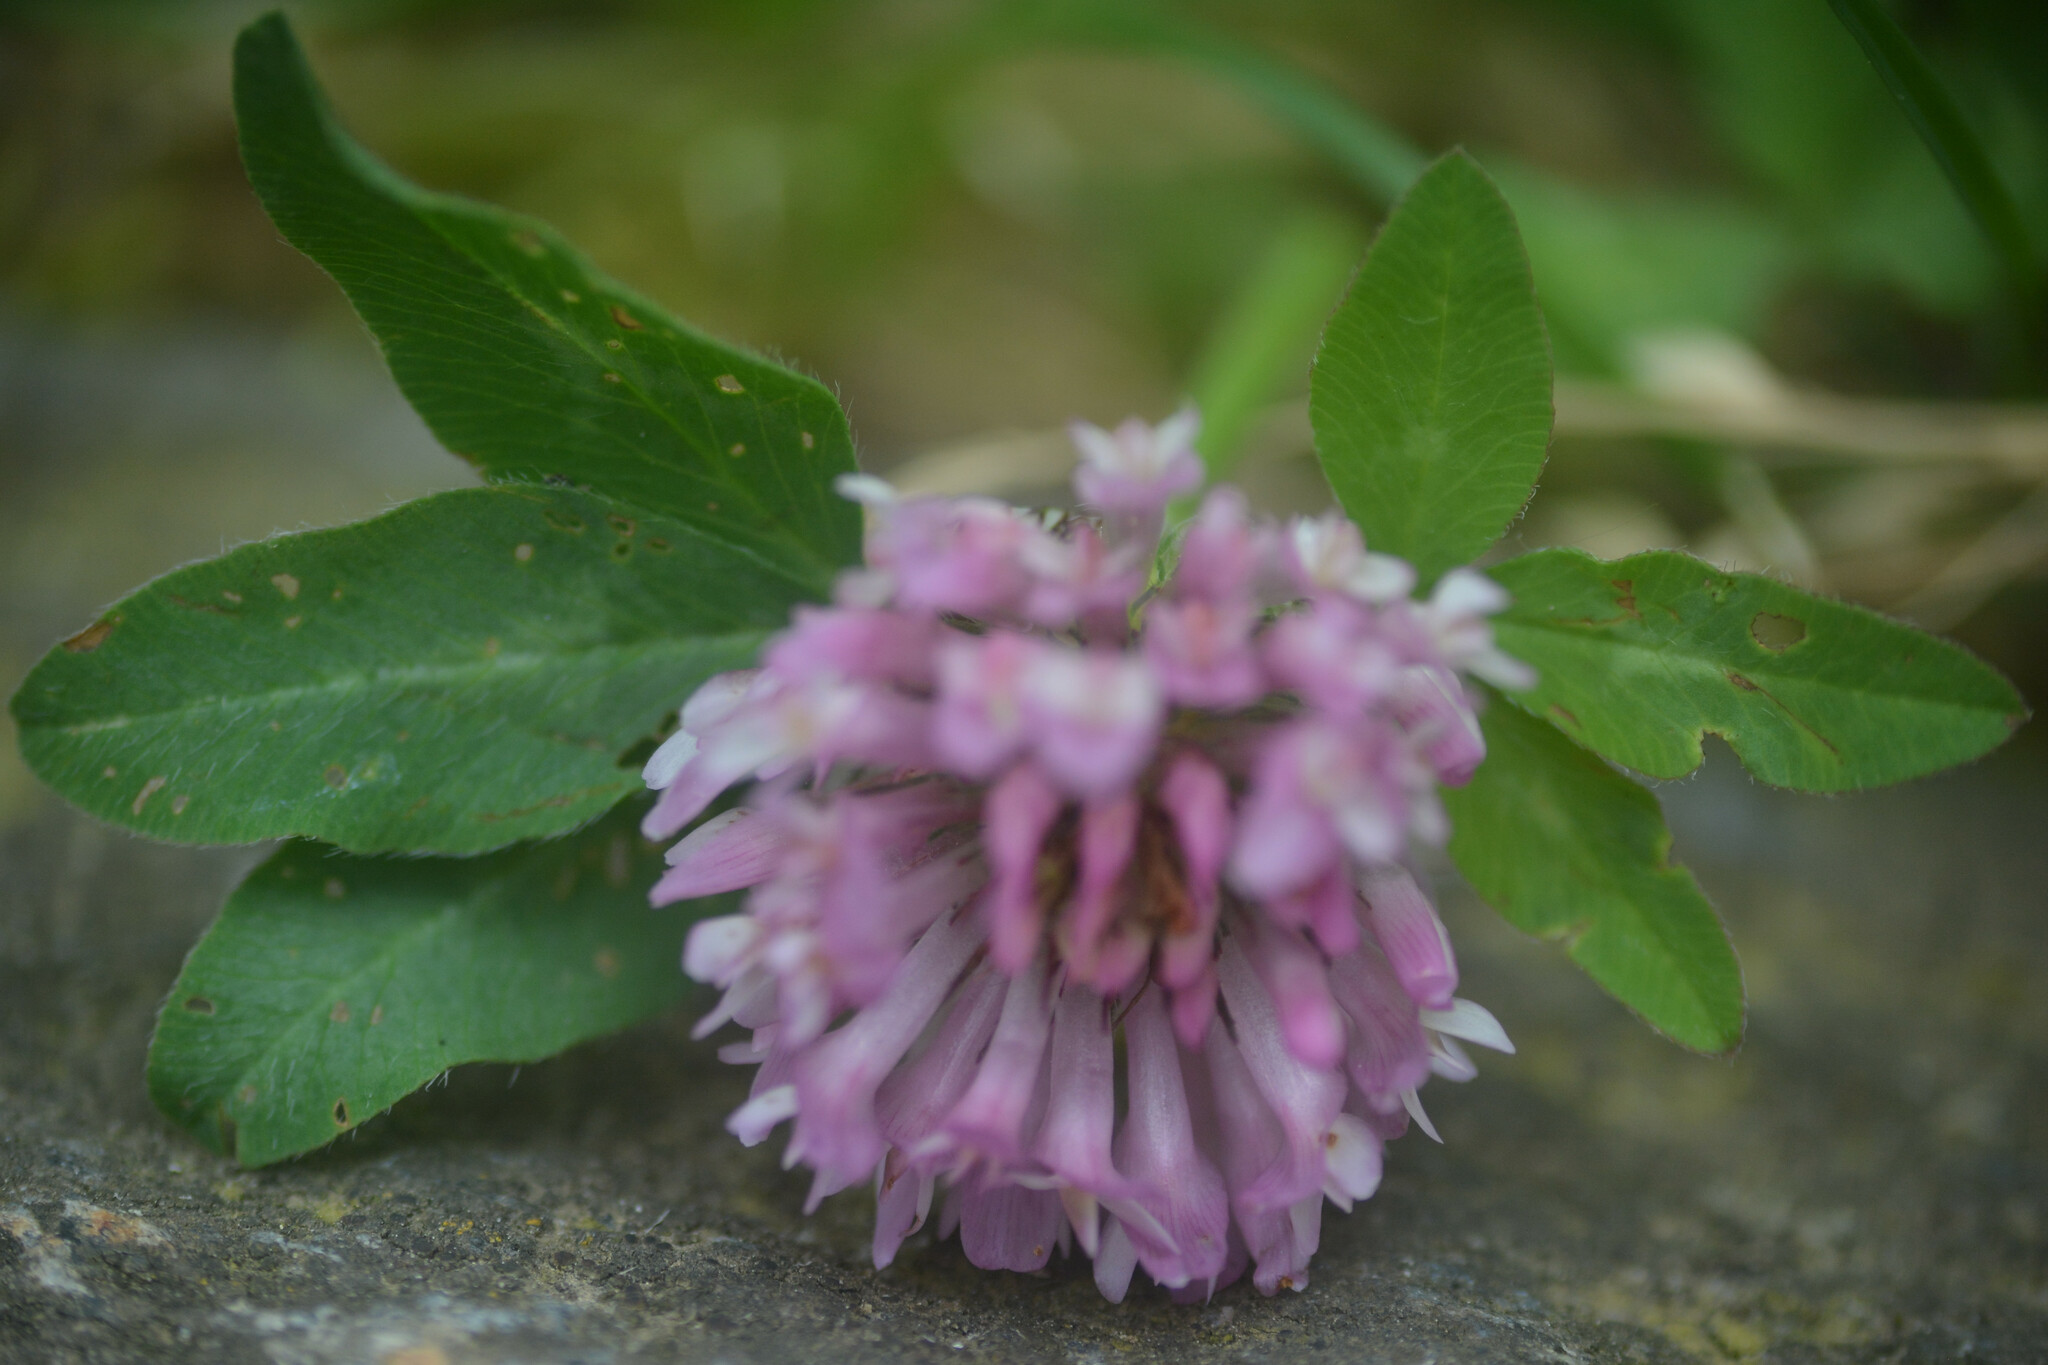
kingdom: Plantae
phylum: Tracheophyta
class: Magnoliopsida
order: Fabales
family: Fabaceae
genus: Trifolium
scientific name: Trifolium pratense
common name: Red clover
